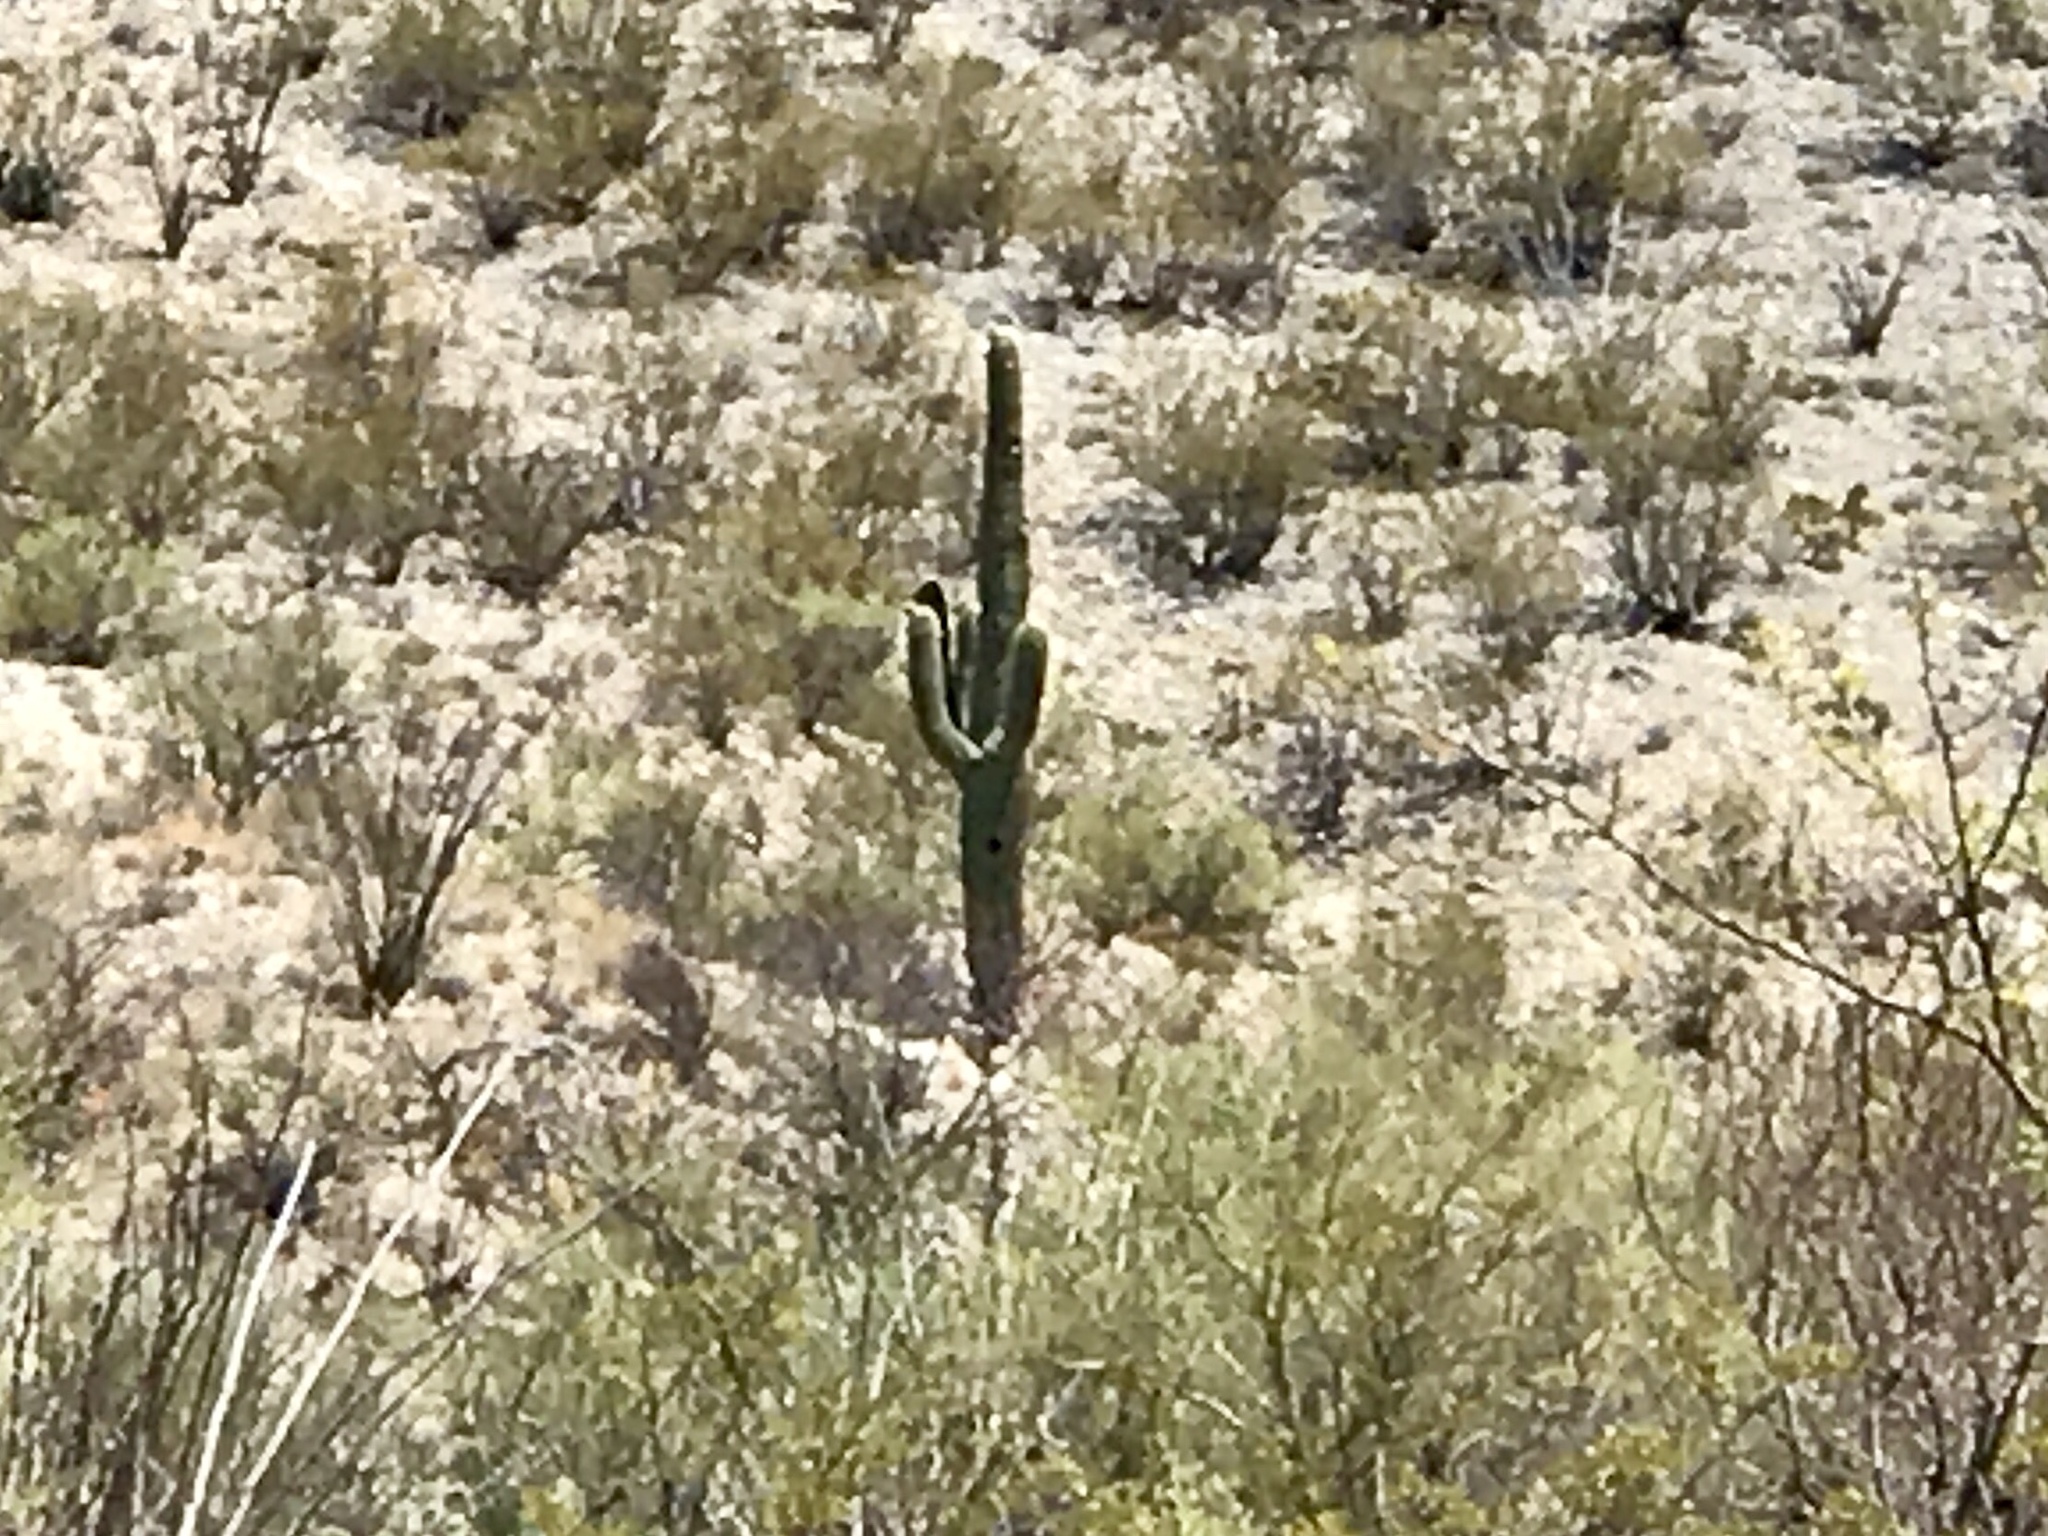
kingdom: Plantae
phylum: Tracheophyta
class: Magnoliopsida
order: Caryophyllales
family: Cactaceae
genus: Carnegiea
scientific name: Carnegiea gigantea
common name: Saguaro
